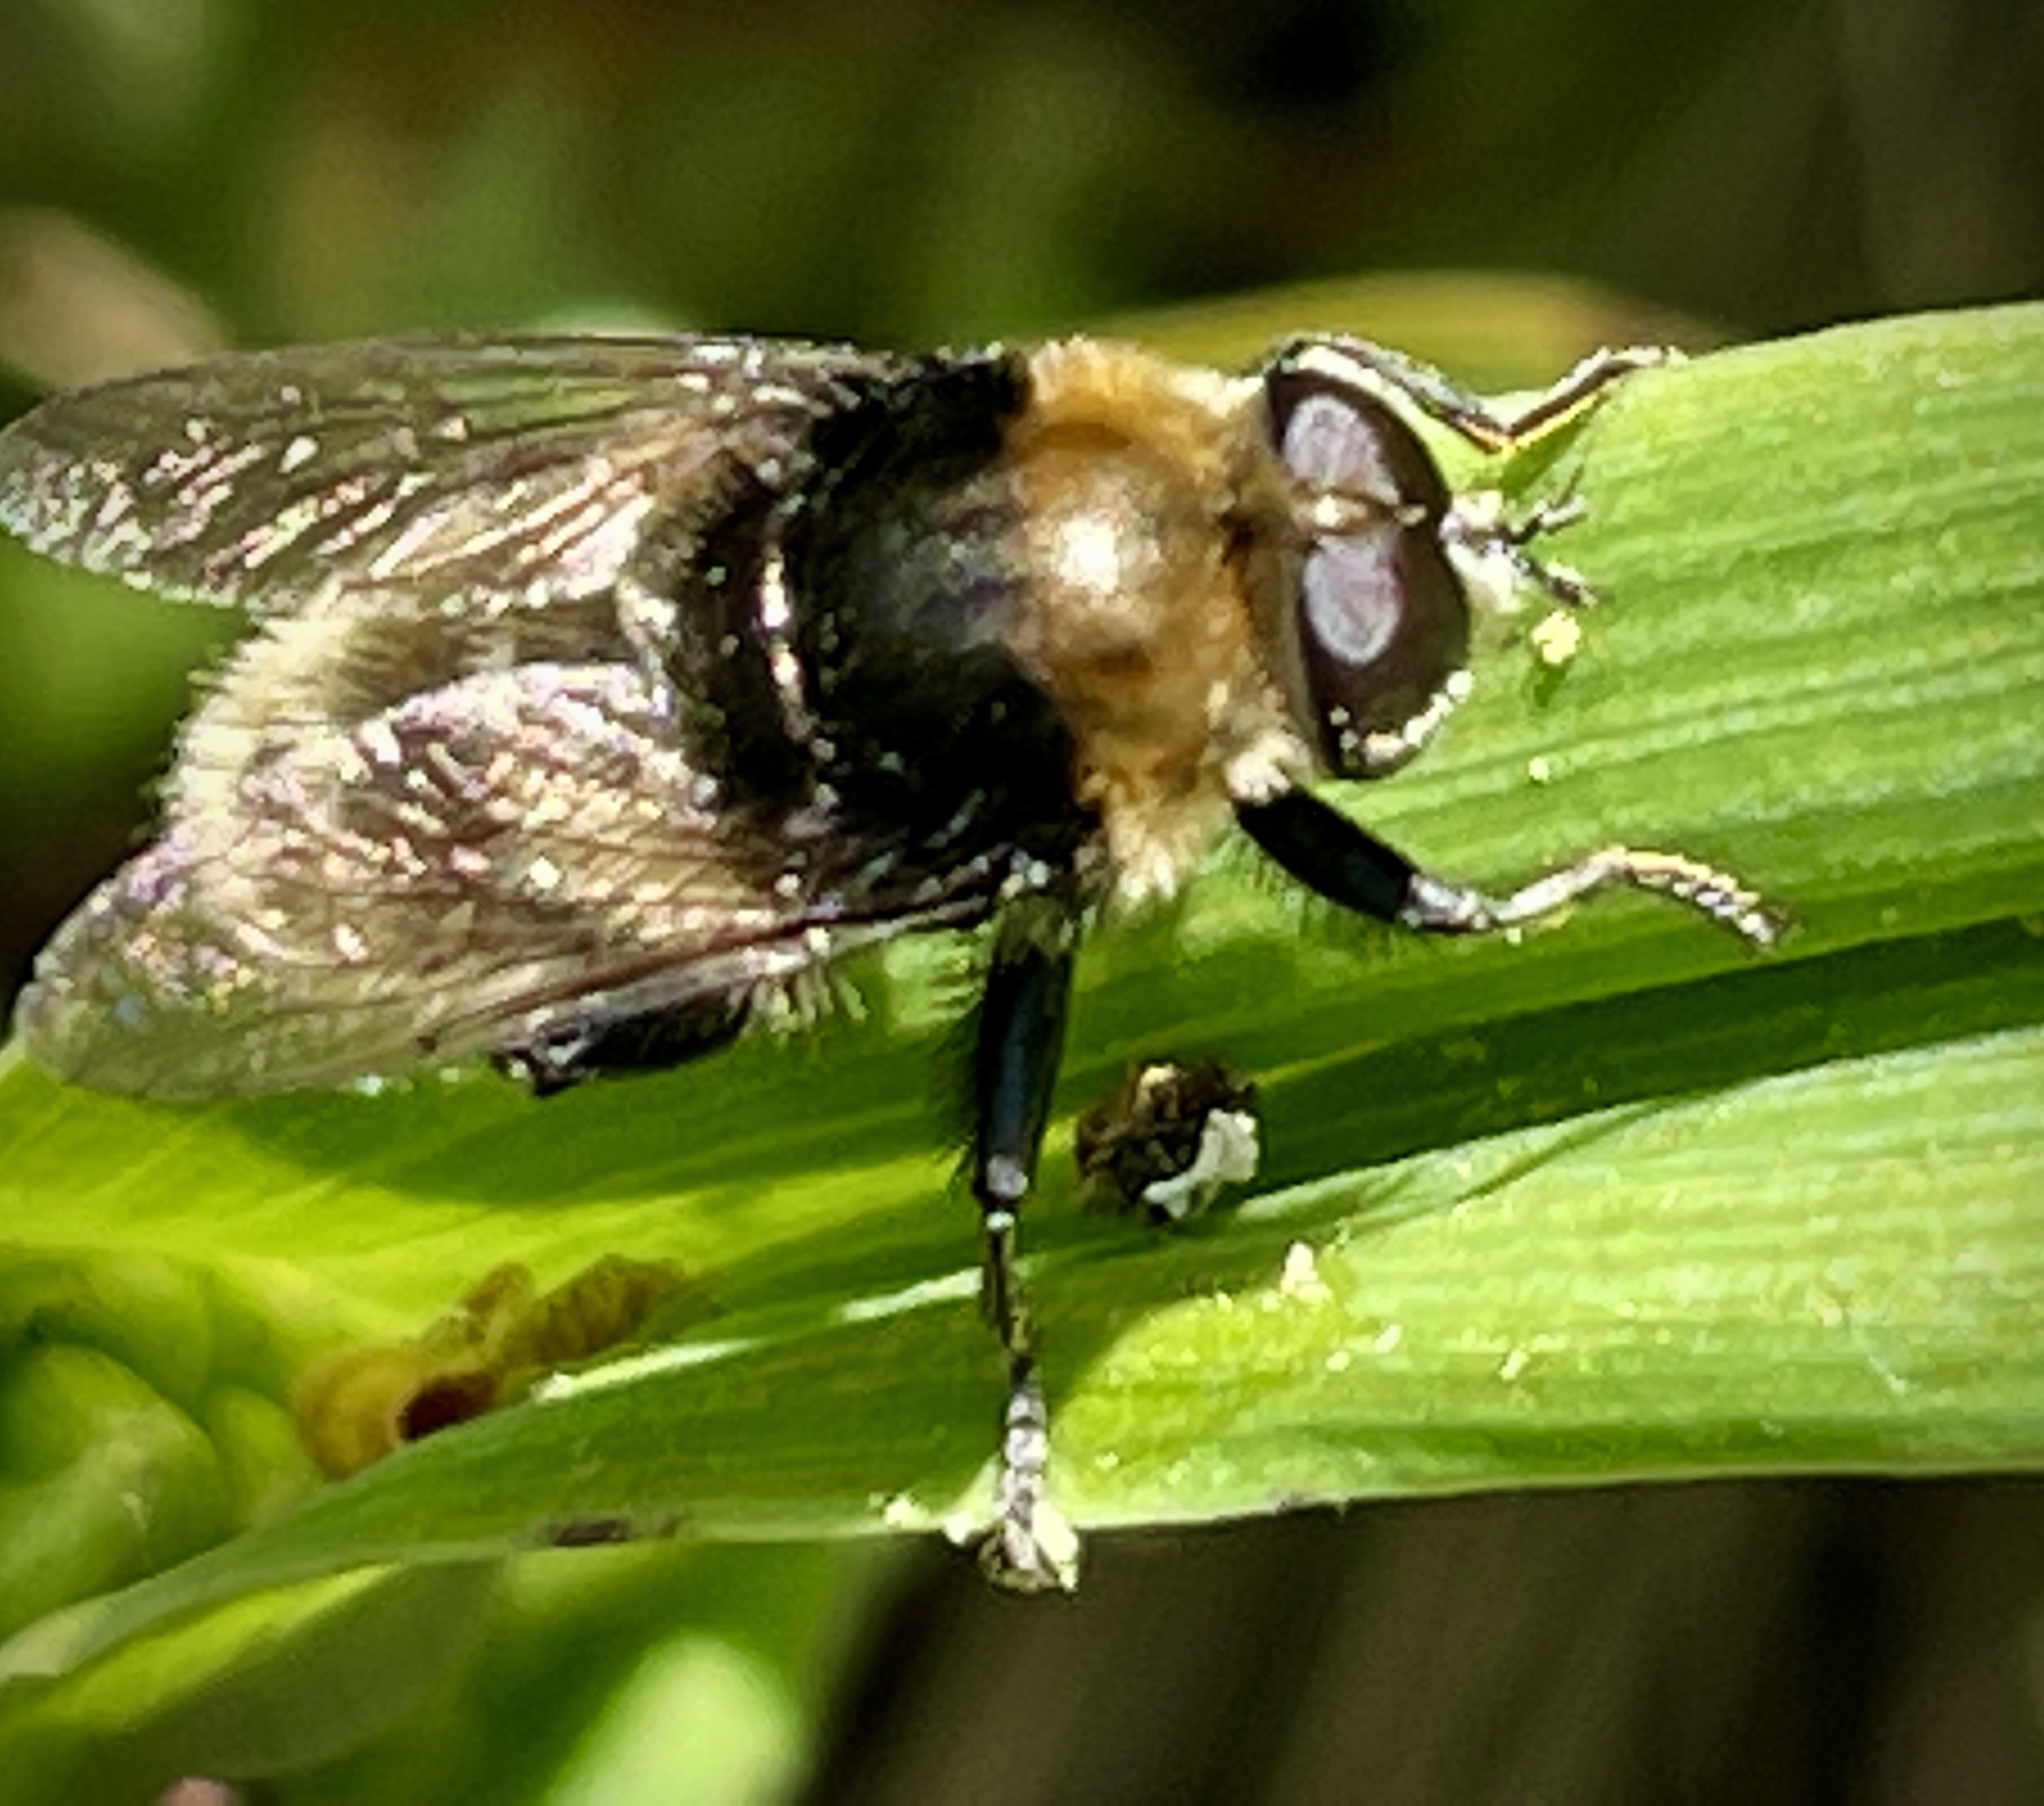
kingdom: Animalia
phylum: Arthropoda
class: Insecta
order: Diptera
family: Syrphidae
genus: Merodon
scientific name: Merodon equestris
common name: Greater bulb-fly
